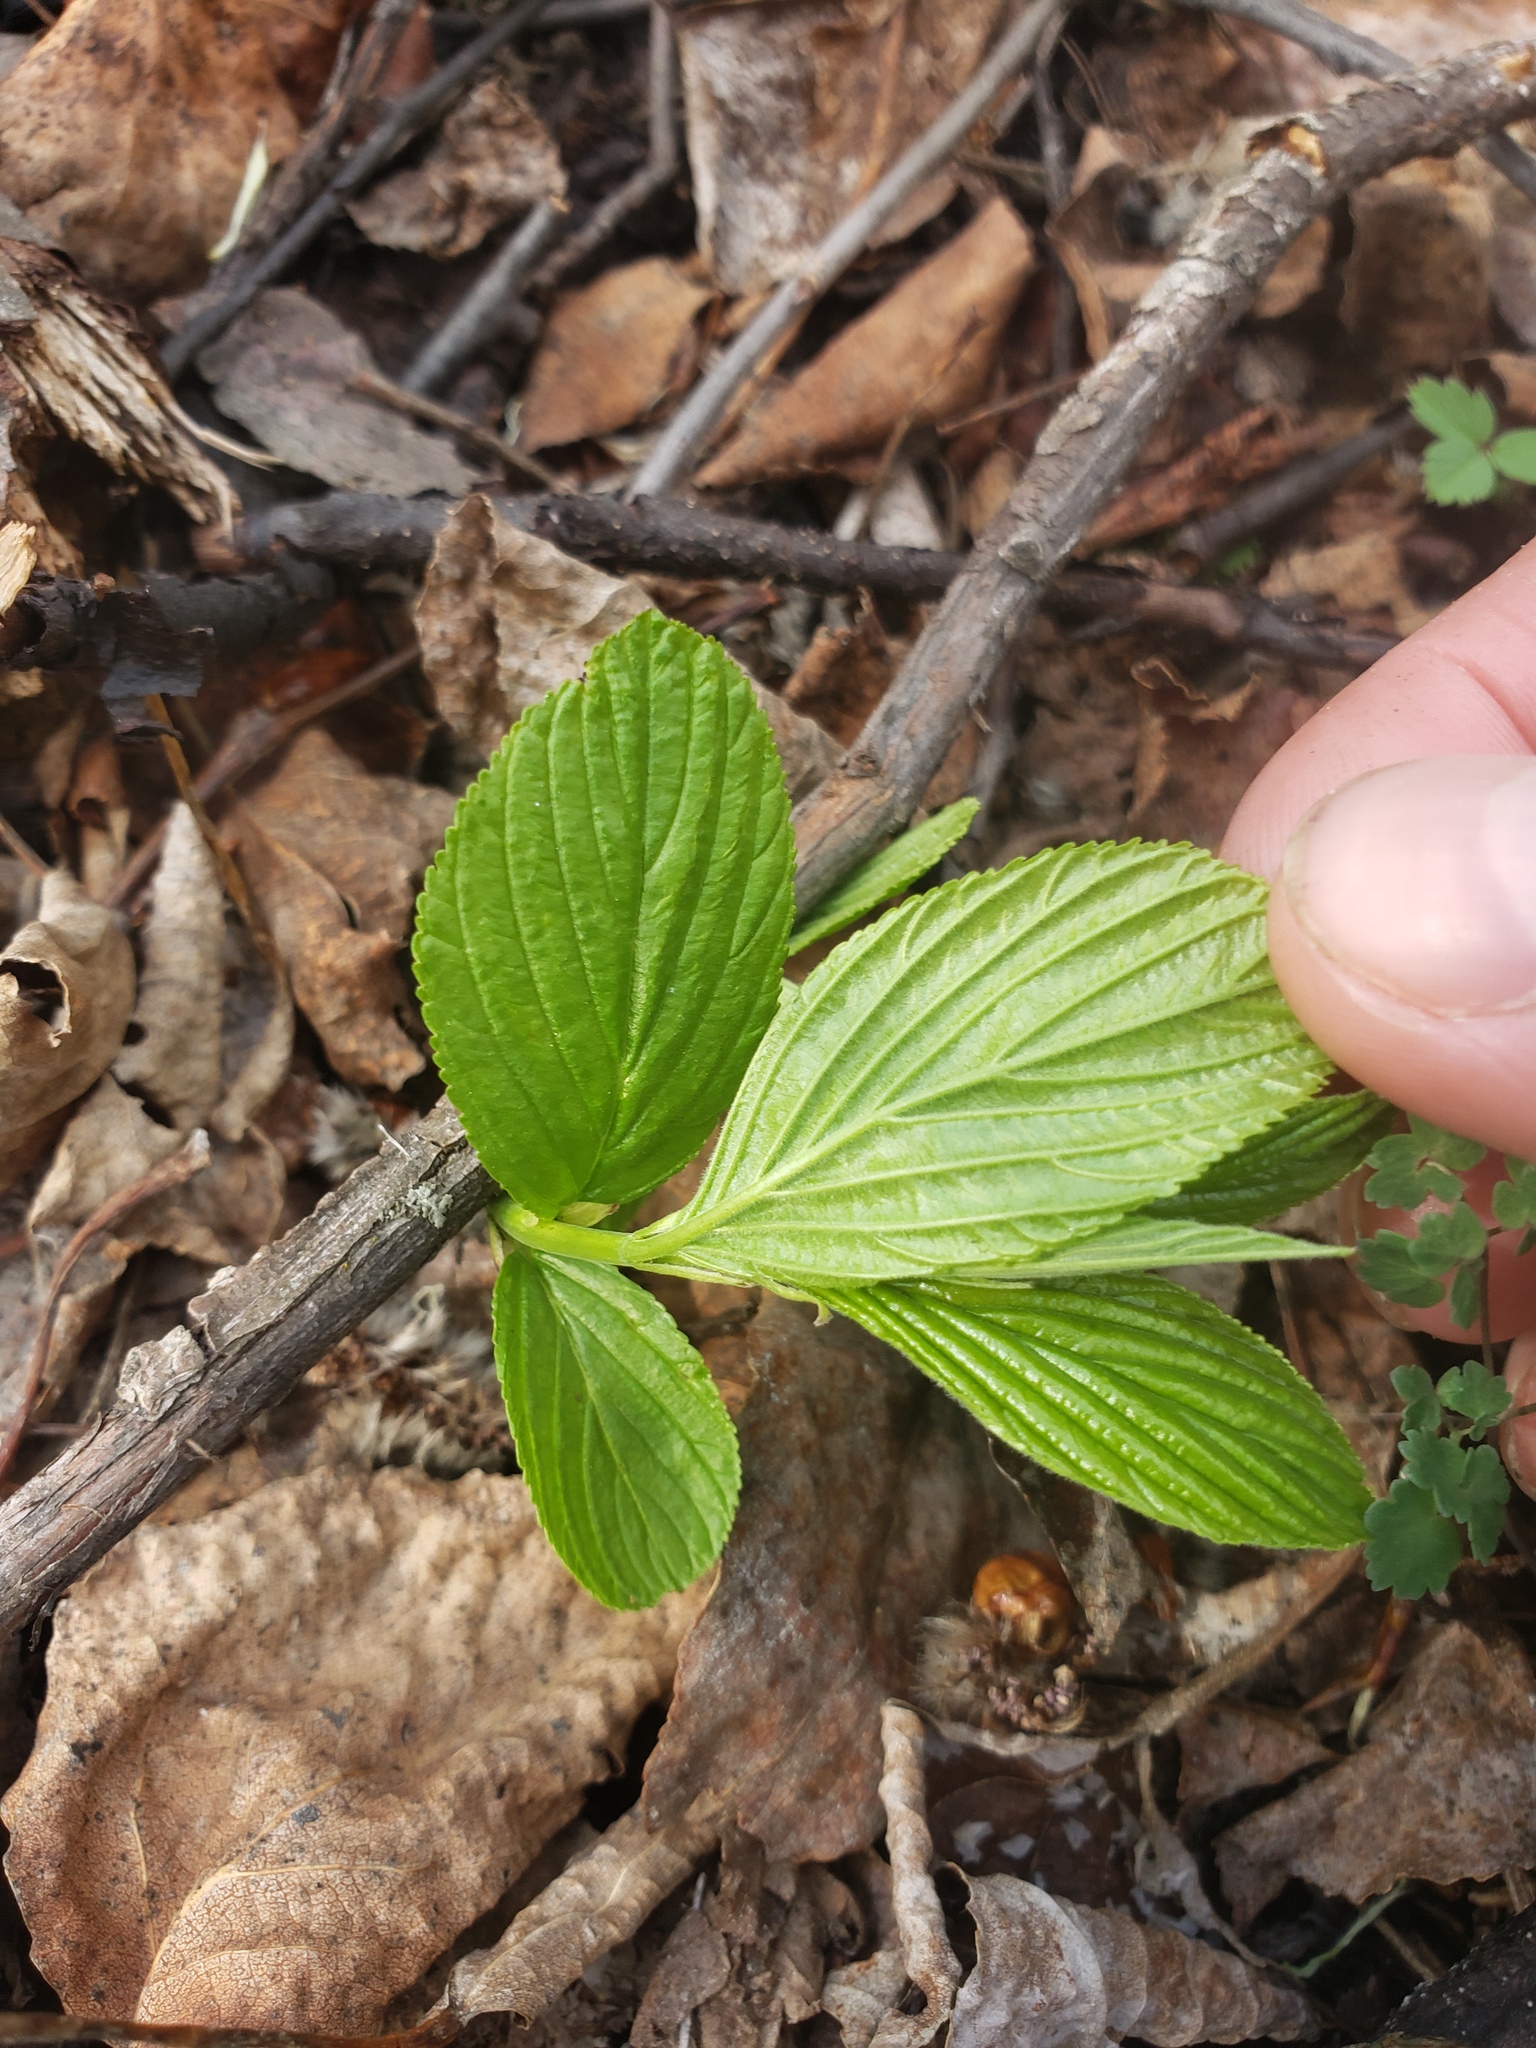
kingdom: Plantae
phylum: Tracheophyta
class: Magnoliopsida
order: Rosales
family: Rhamnaceae
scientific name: Rhamnaceae
